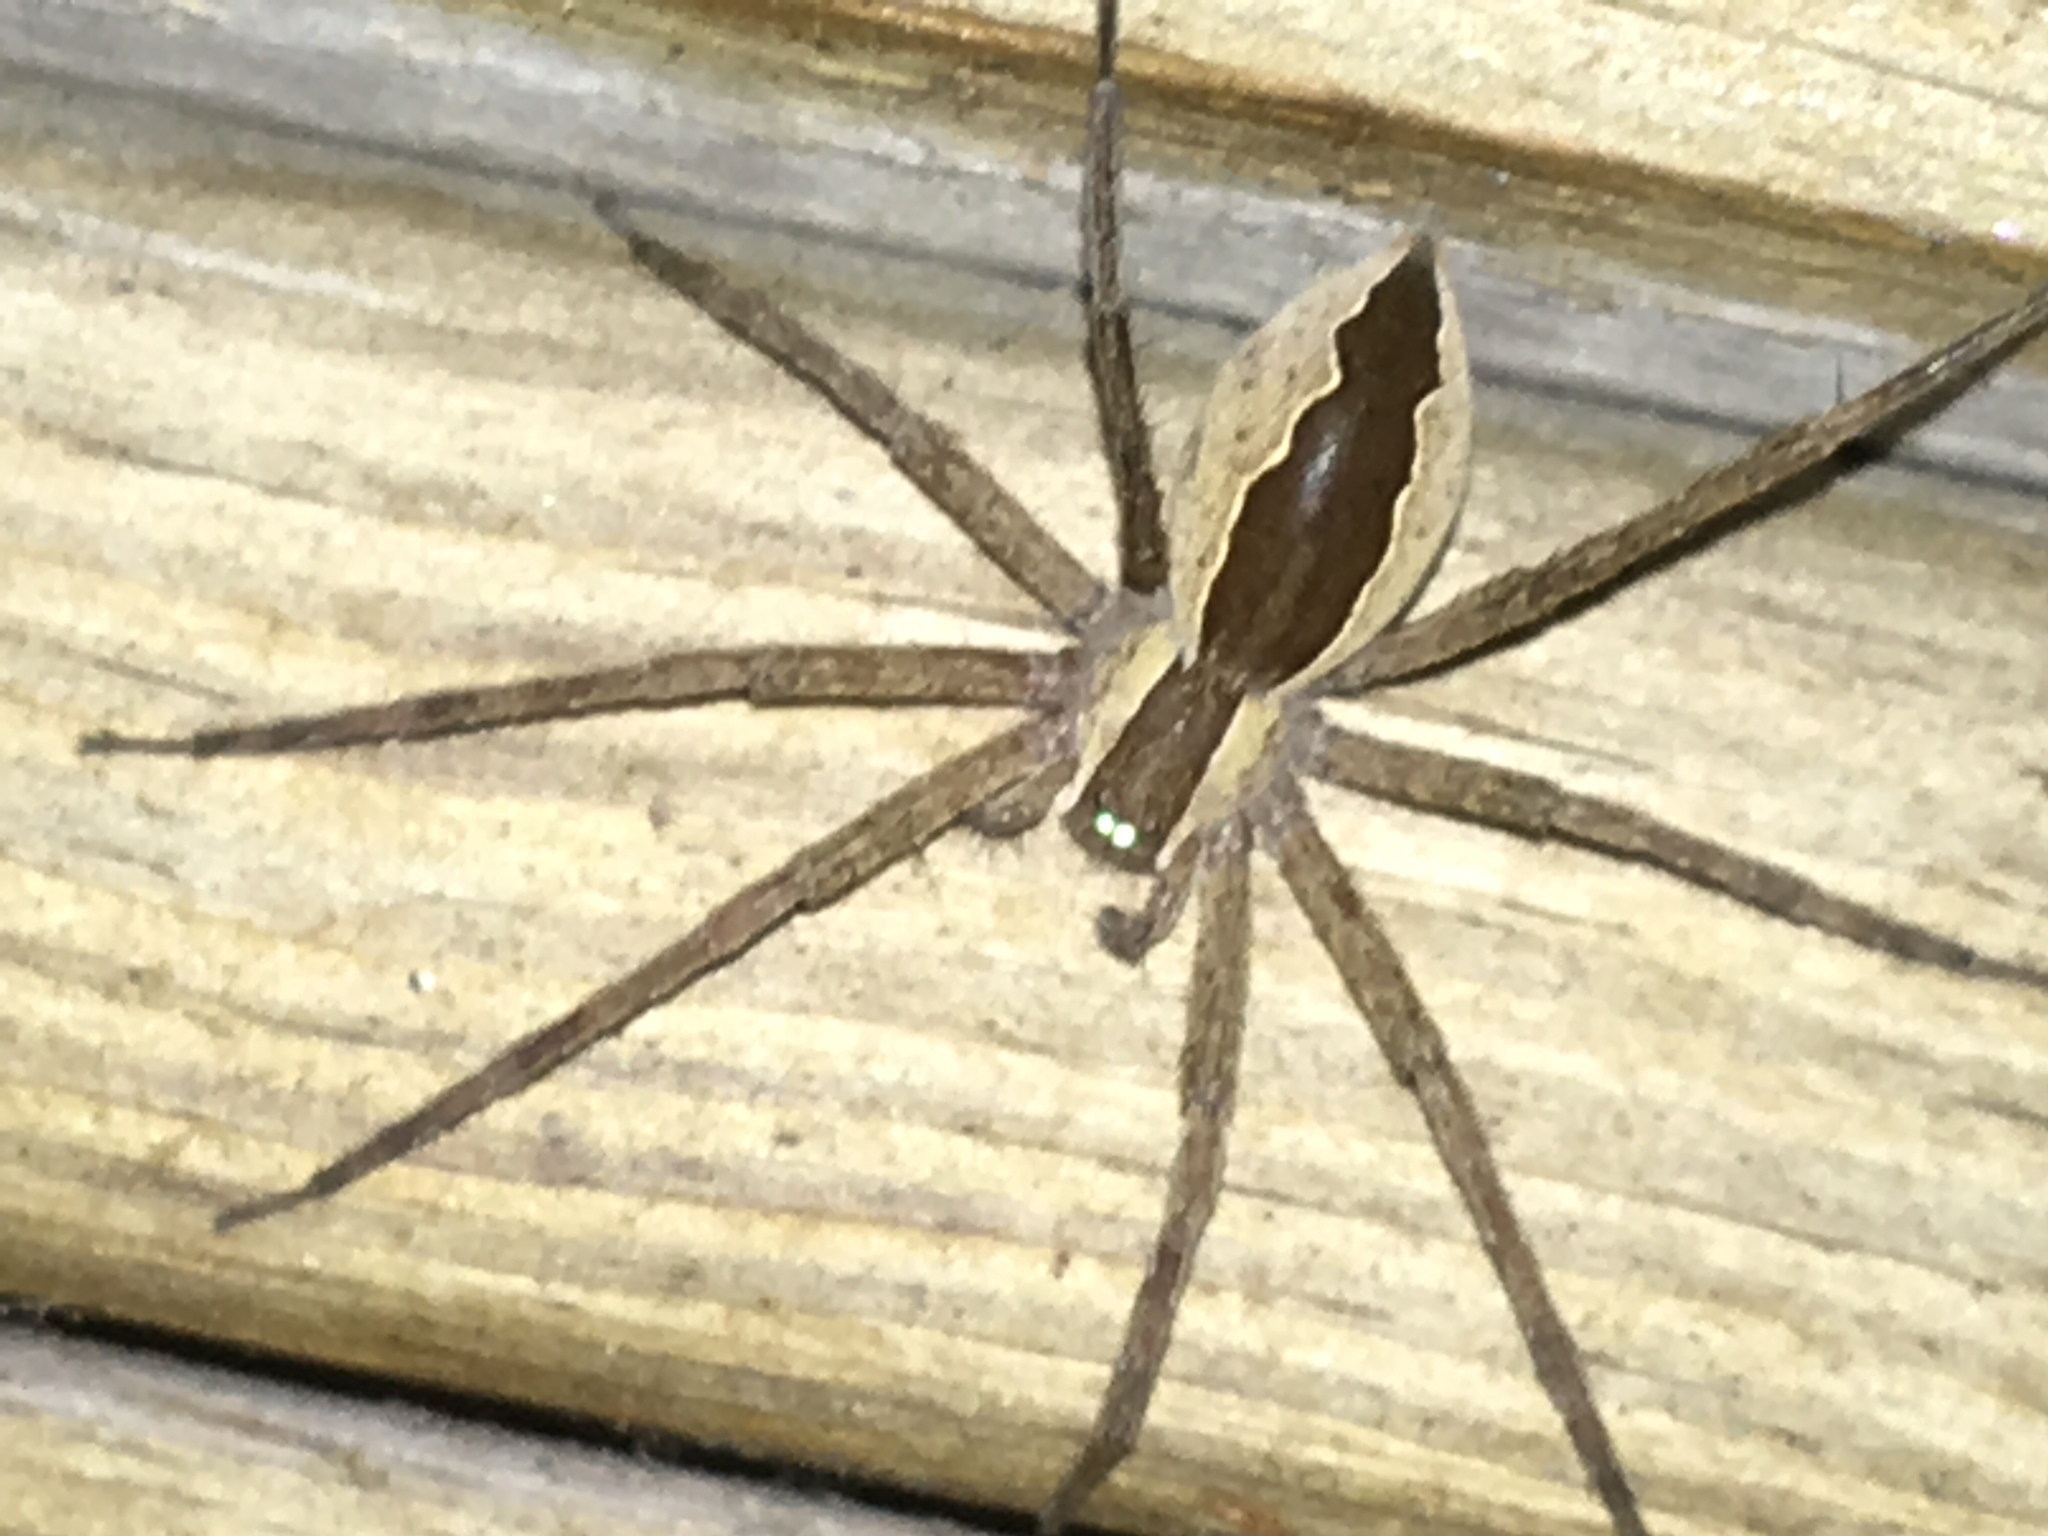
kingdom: Animalia
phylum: Arthropoda
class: Arachnida
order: Araneae
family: Pisauridae
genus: Pisaurina
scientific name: Pisaurina mira
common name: American nursery web spider
